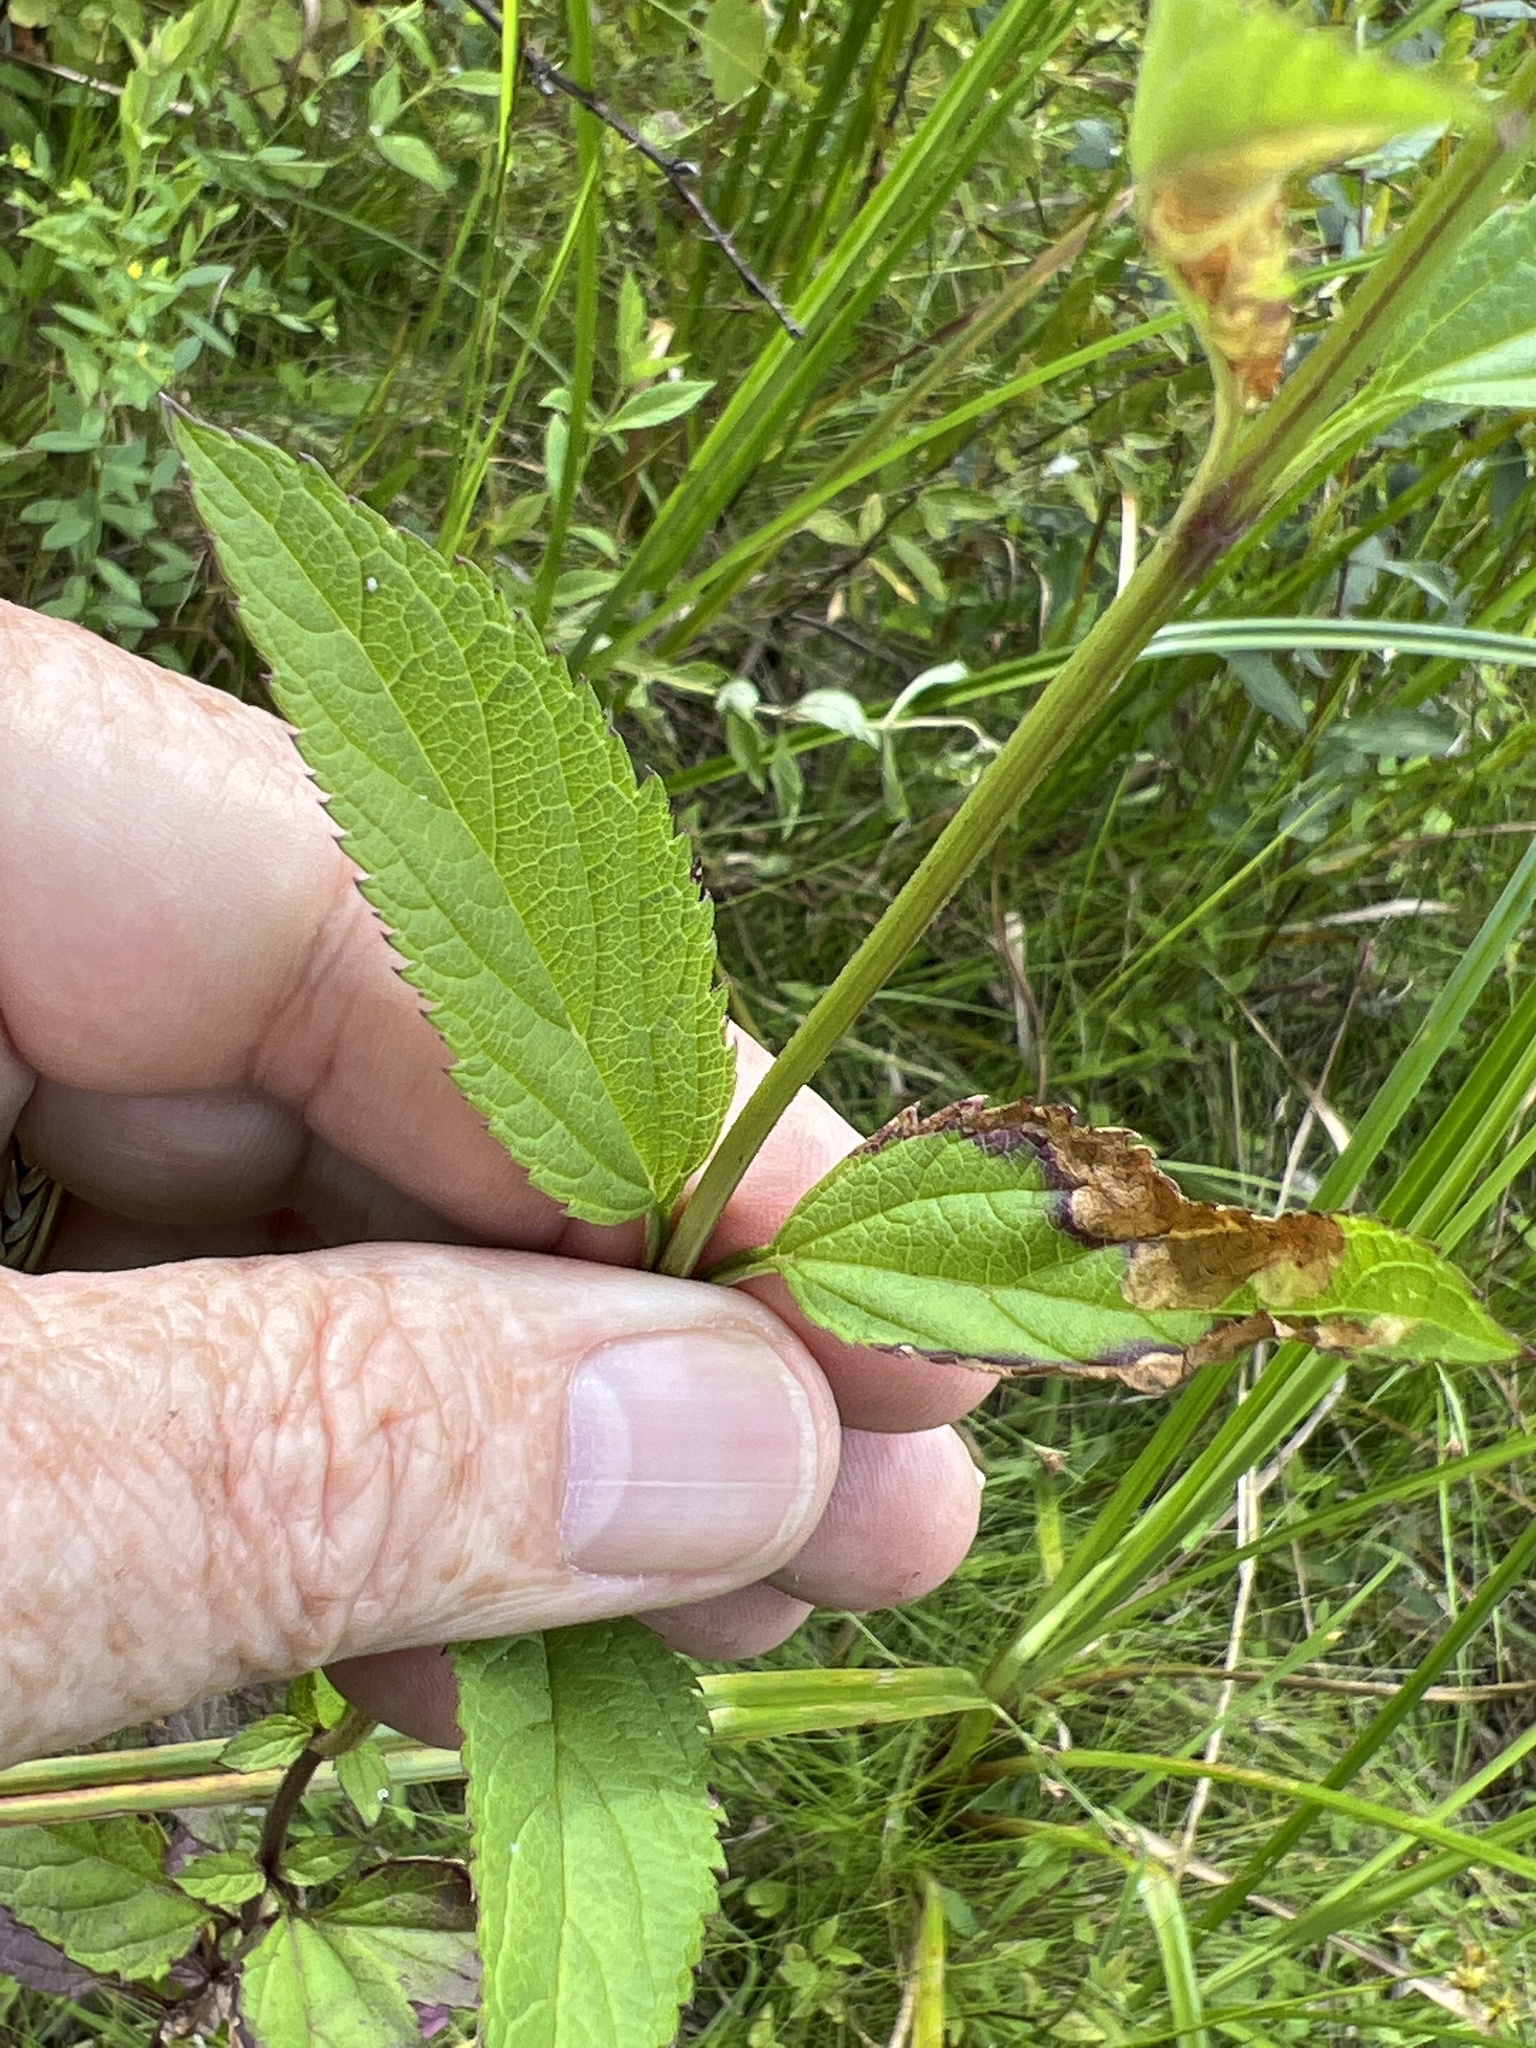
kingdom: Plantae
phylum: Tracheophyta
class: Magnoliopsida
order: Lamiales
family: Verbenaceae
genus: Verbena
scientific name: Verbena hastata
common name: American blue vervain
